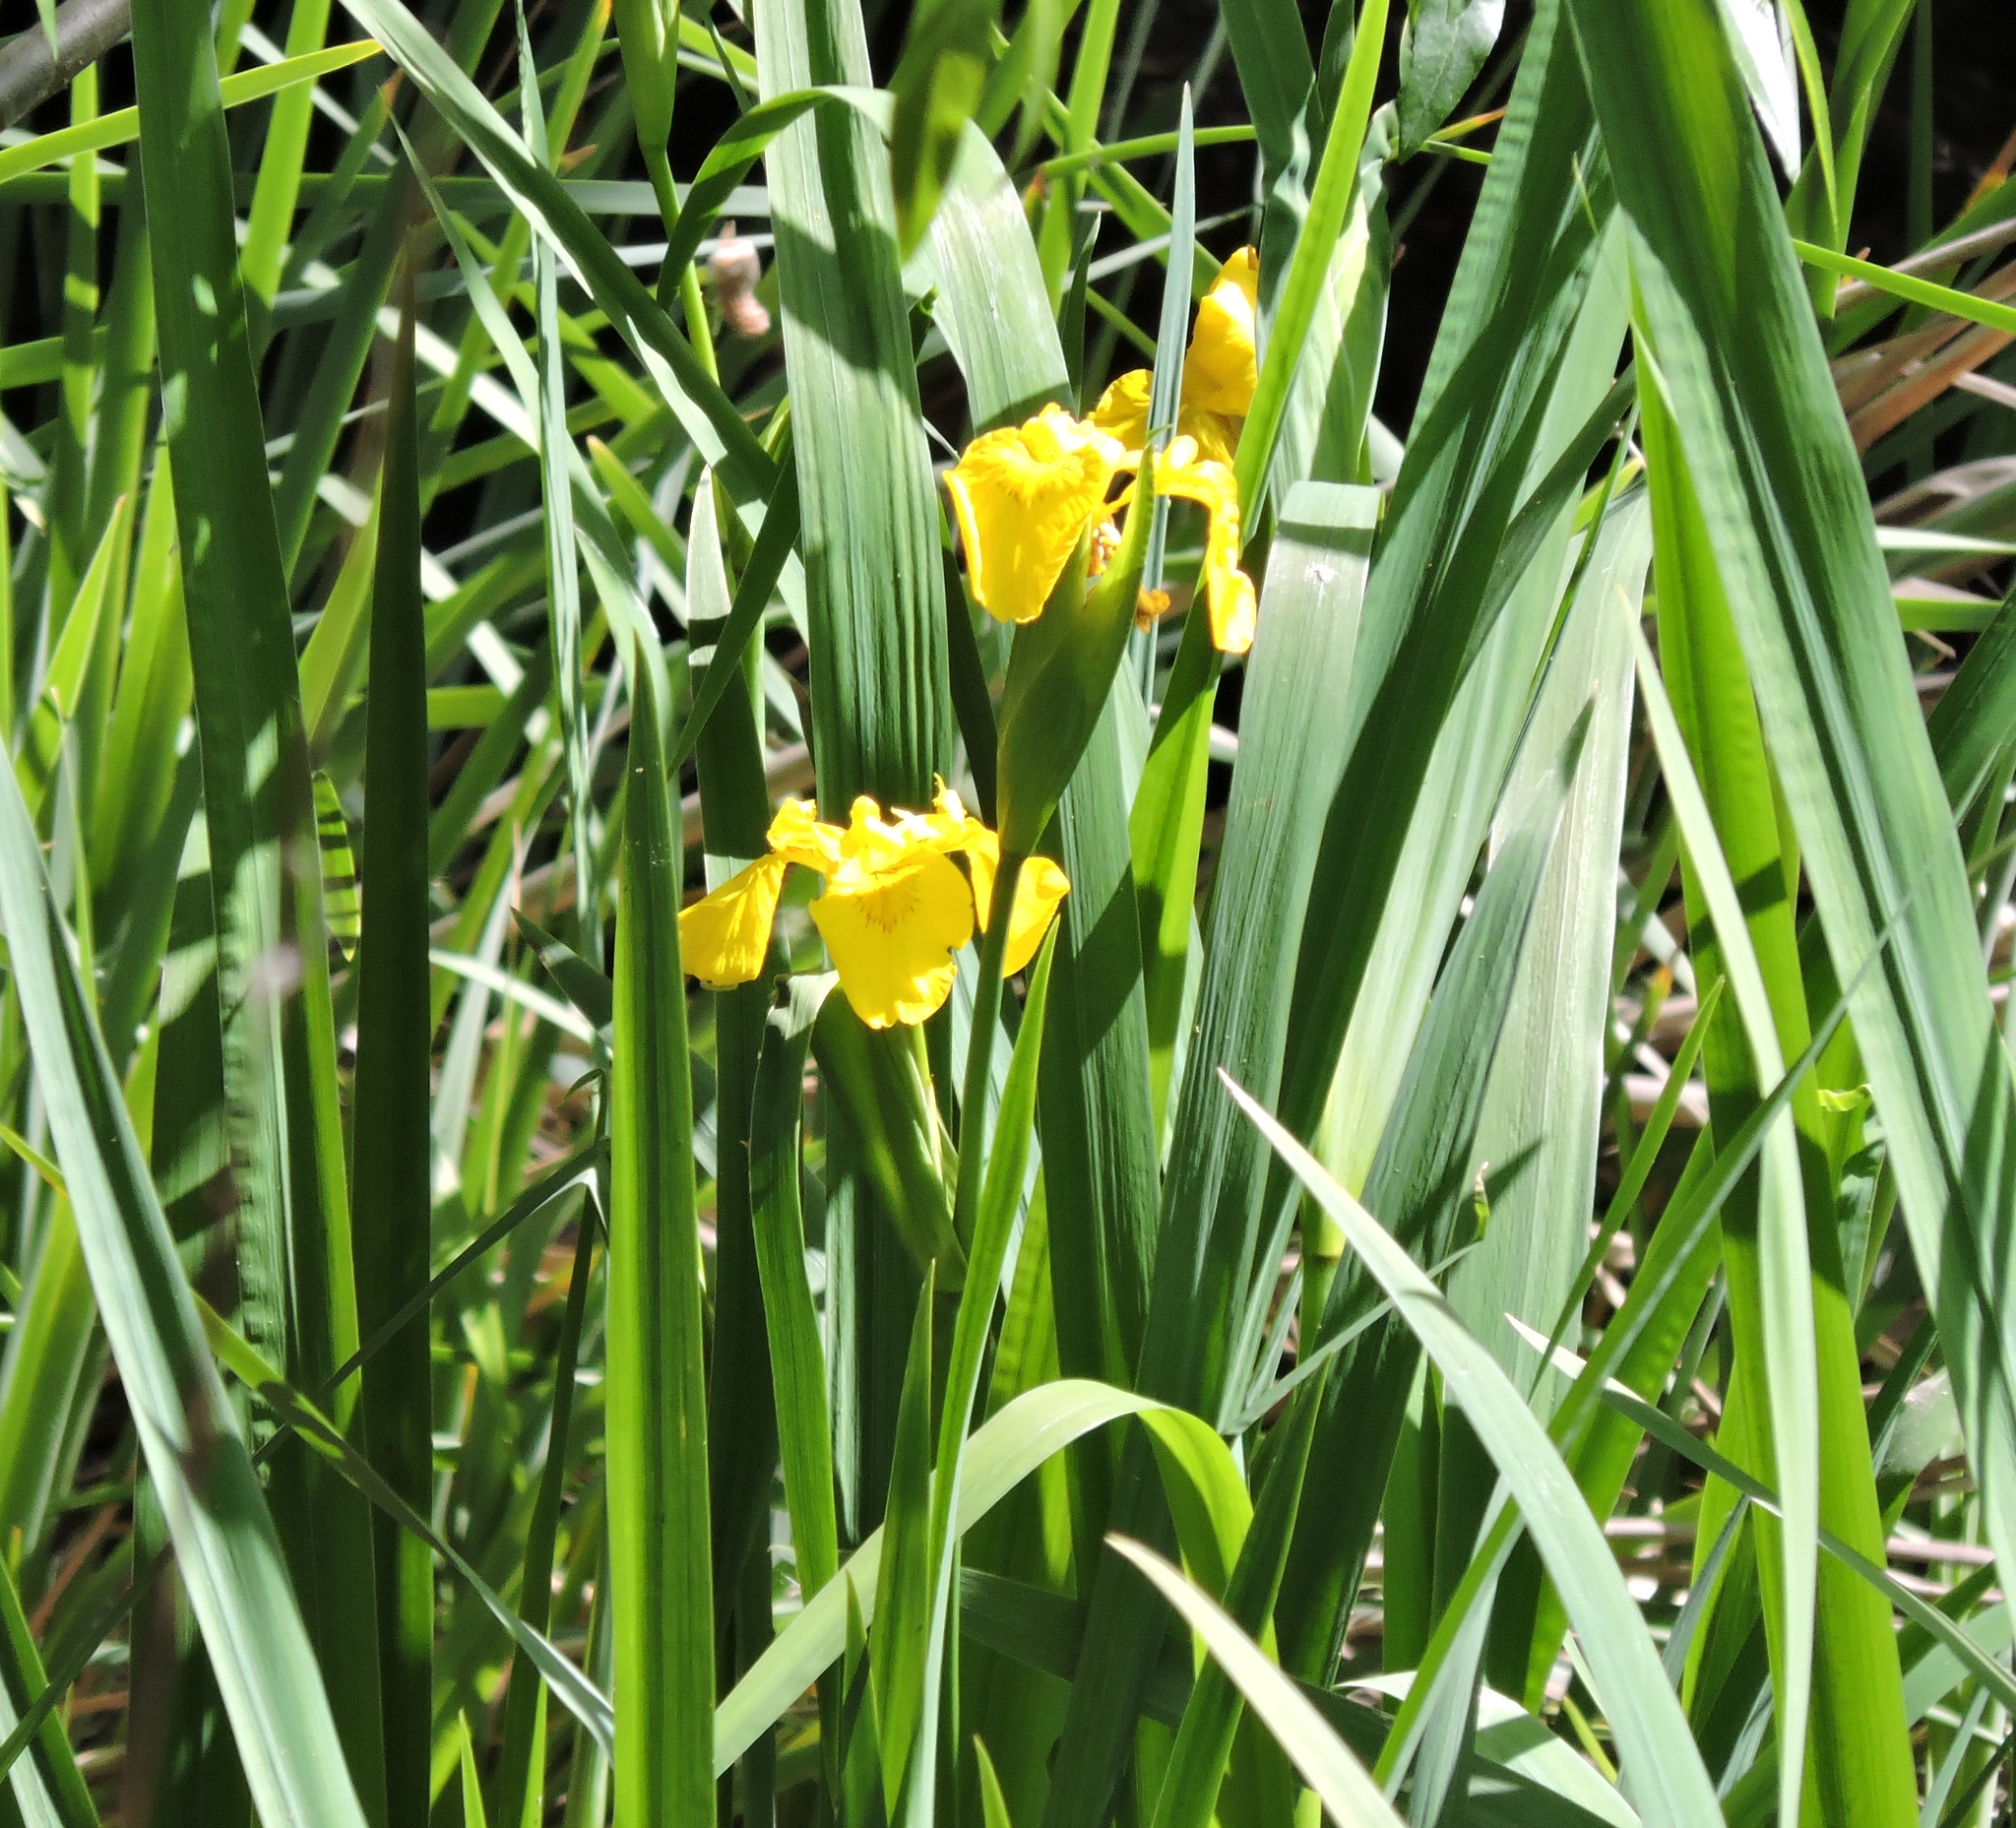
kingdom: Plantae
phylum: Tracheophyta
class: Liliopsida
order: Asparagales
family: Iridaceae
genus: Iris
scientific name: Iris pseudacorus
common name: Yellow flag
